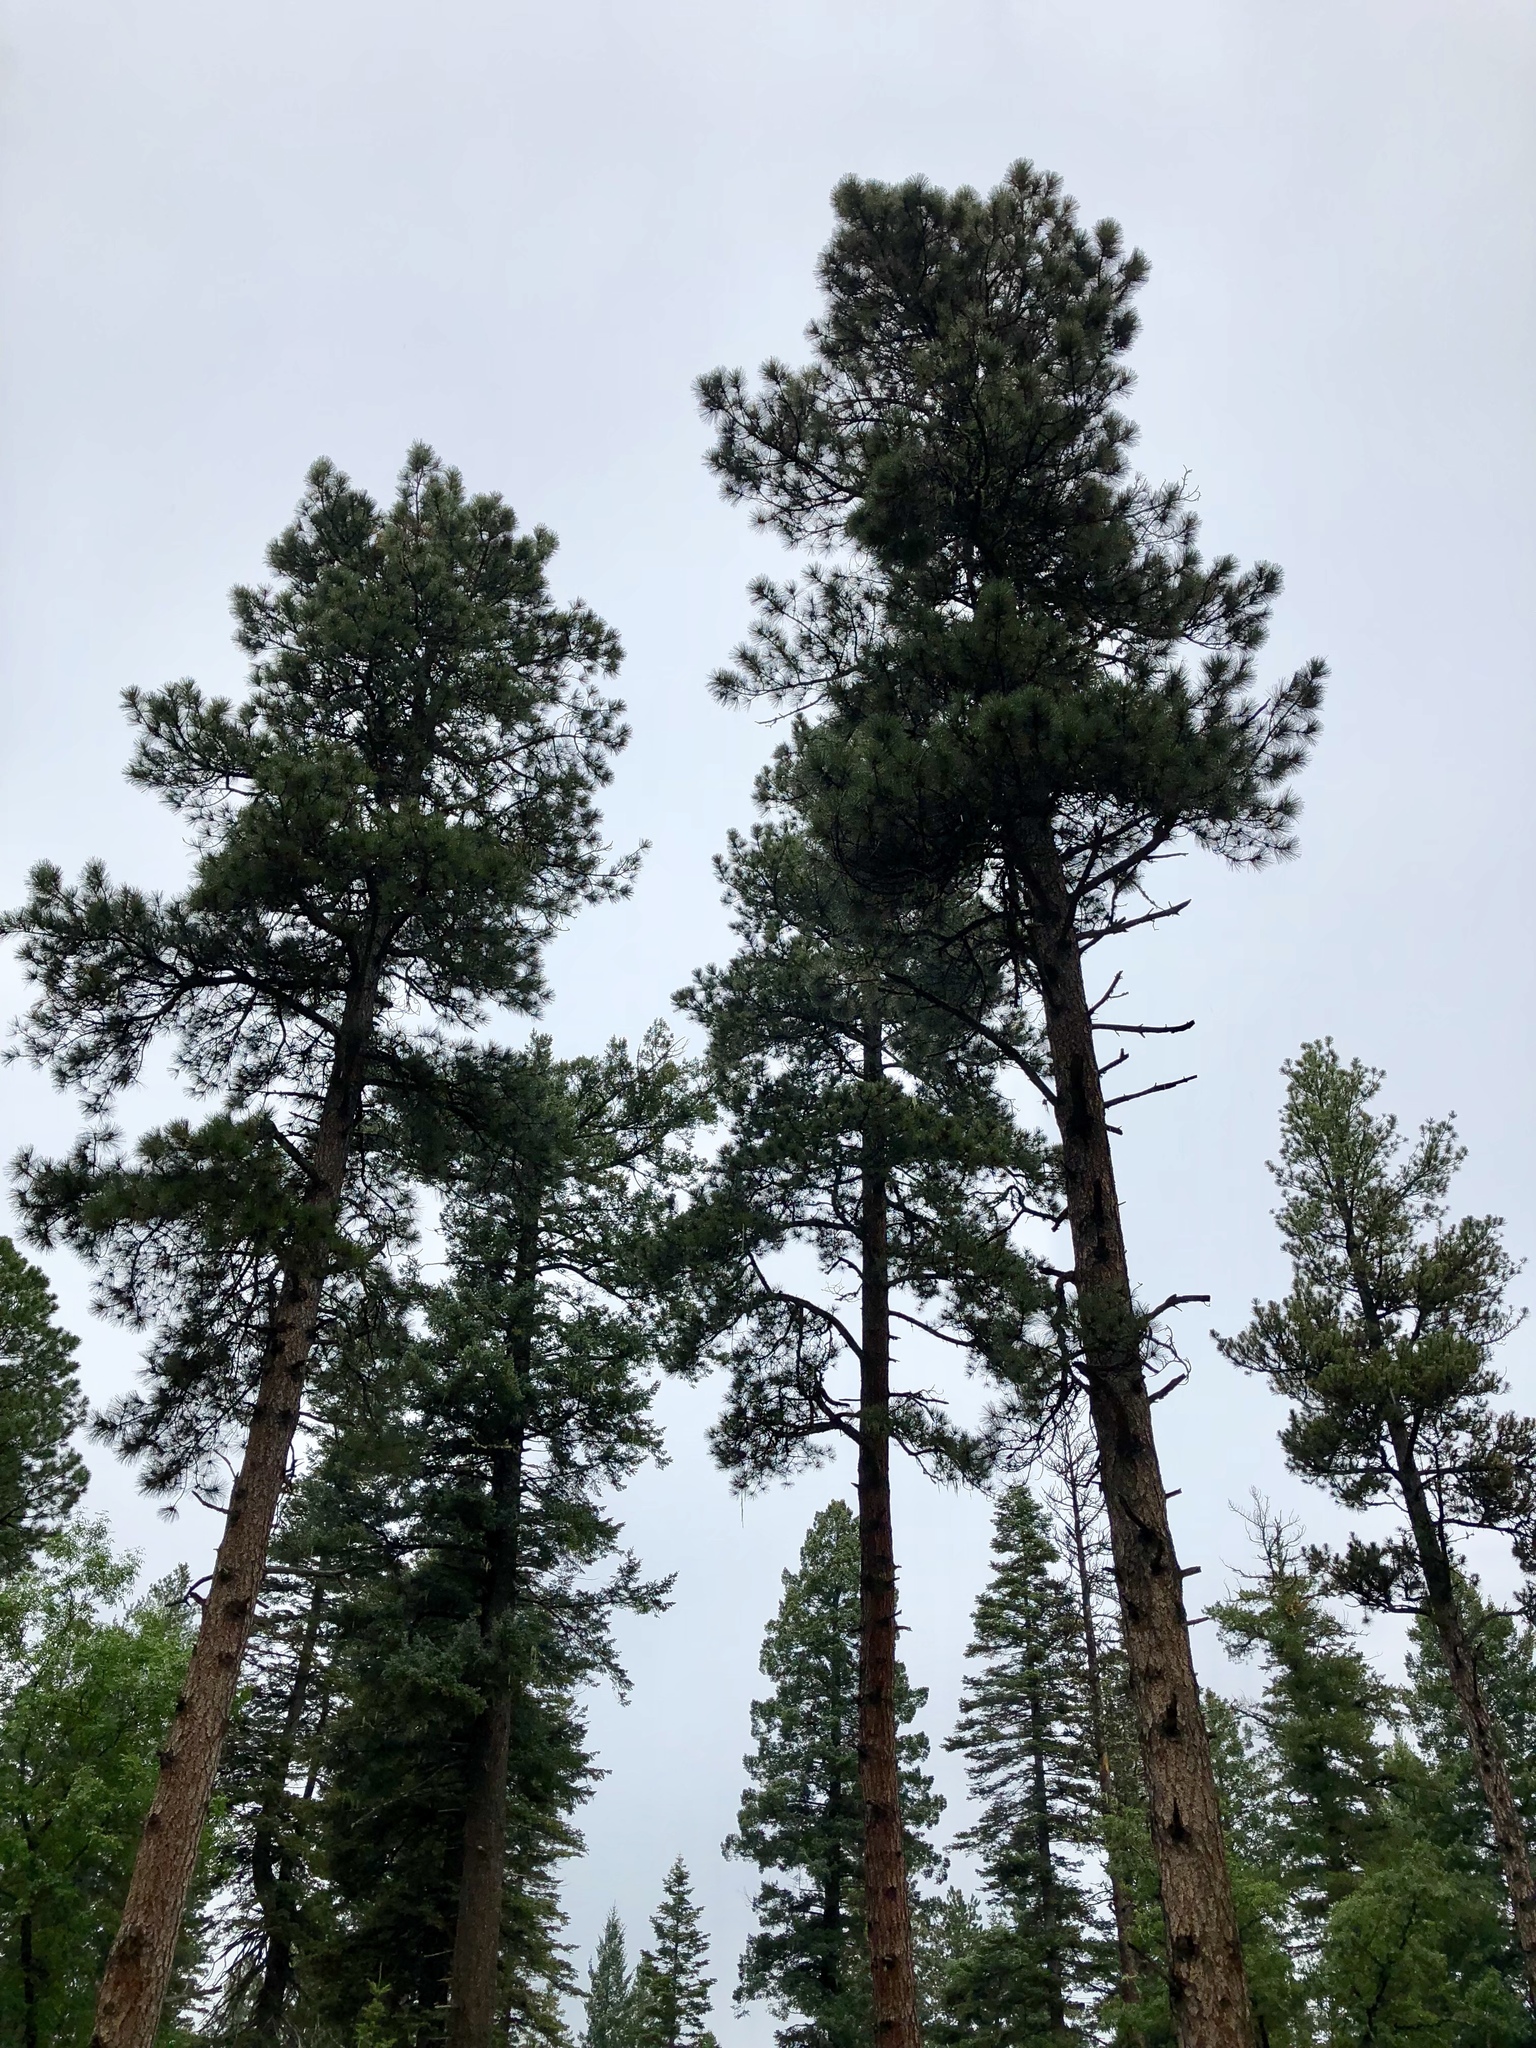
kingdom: Plantae
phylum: Tracheophyta
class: Pinopsida
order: Pinales
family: Pinaceae
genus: Pinus
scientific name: Pinus ponderosa
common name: Western yellow-pine
